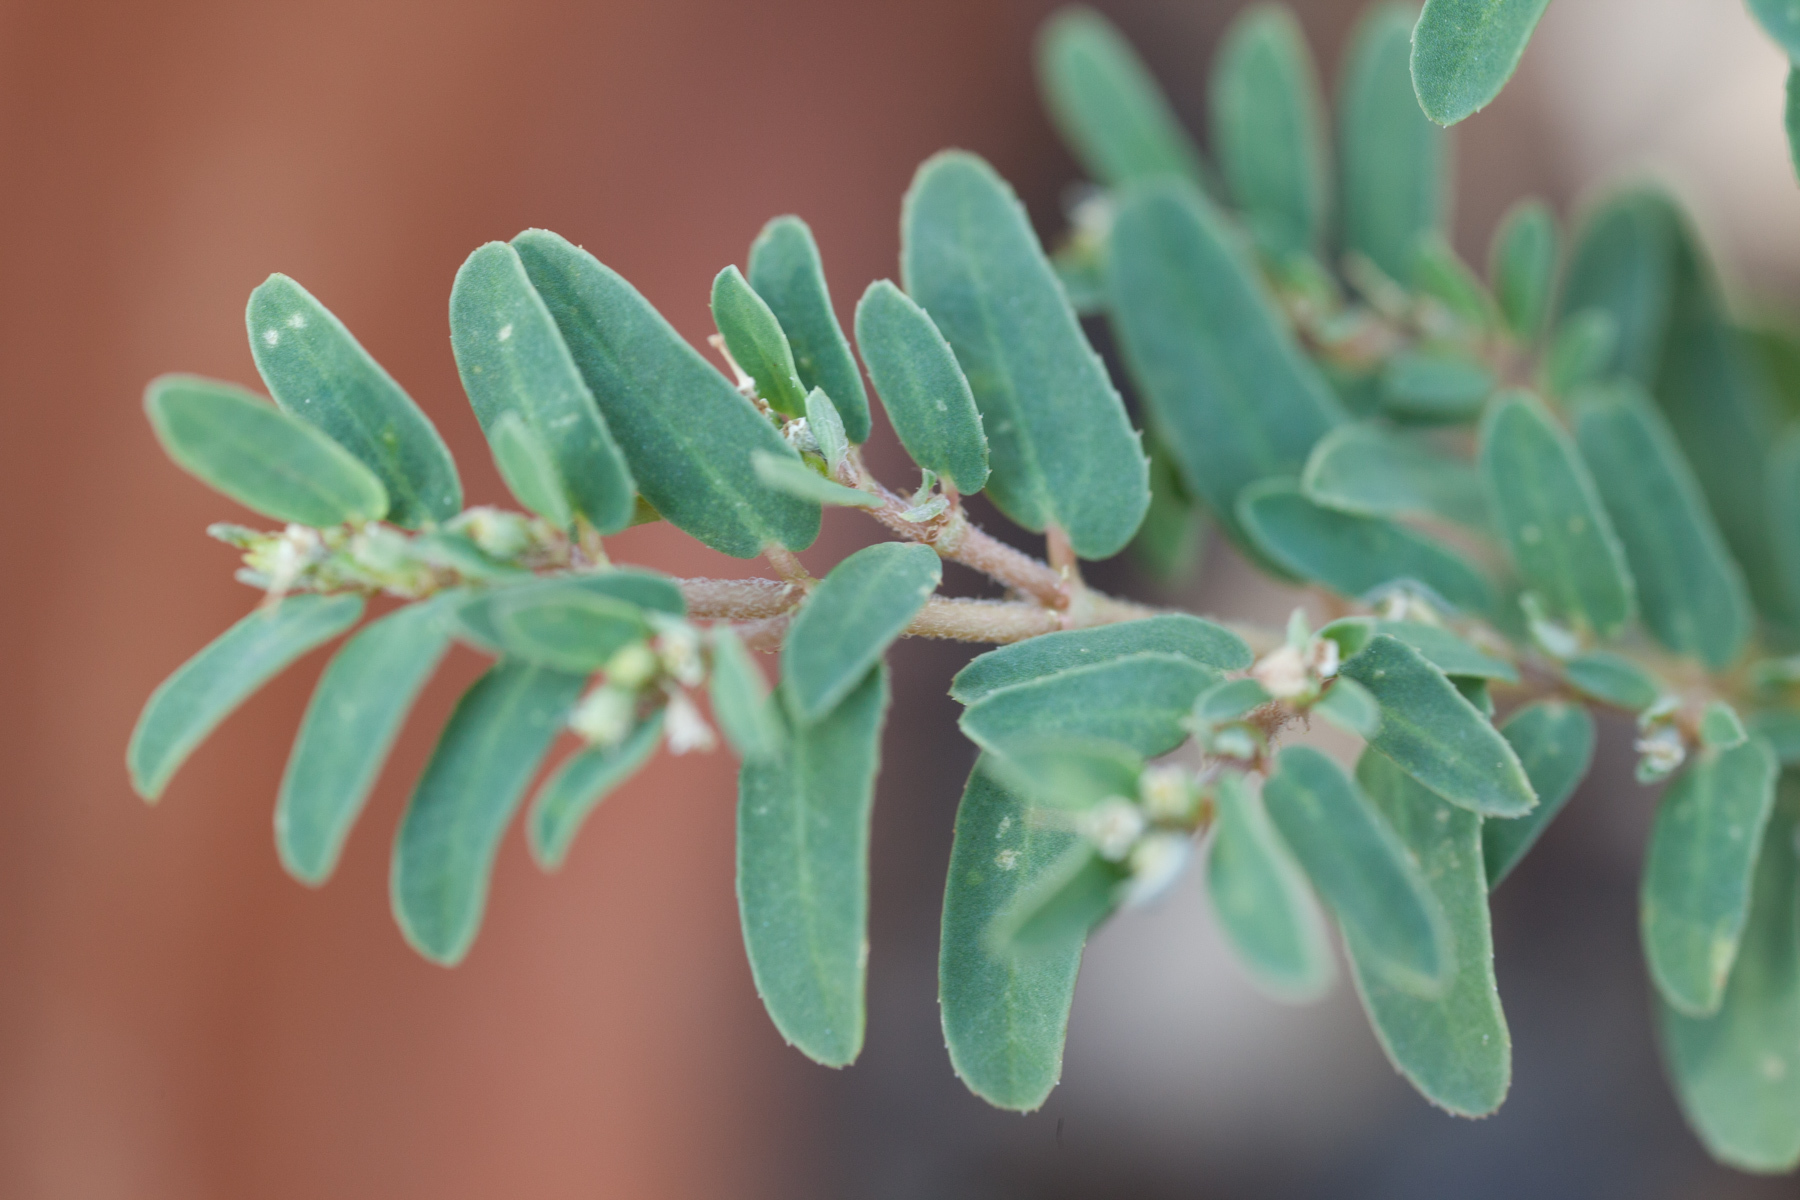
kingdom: Plantae
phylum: Tracheophyta
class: Magnoliopsida
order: Malpighiales
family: Euphorbiaceae
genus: Euphorbia
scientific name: Euphorbia maculata
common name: Spotted spurge
